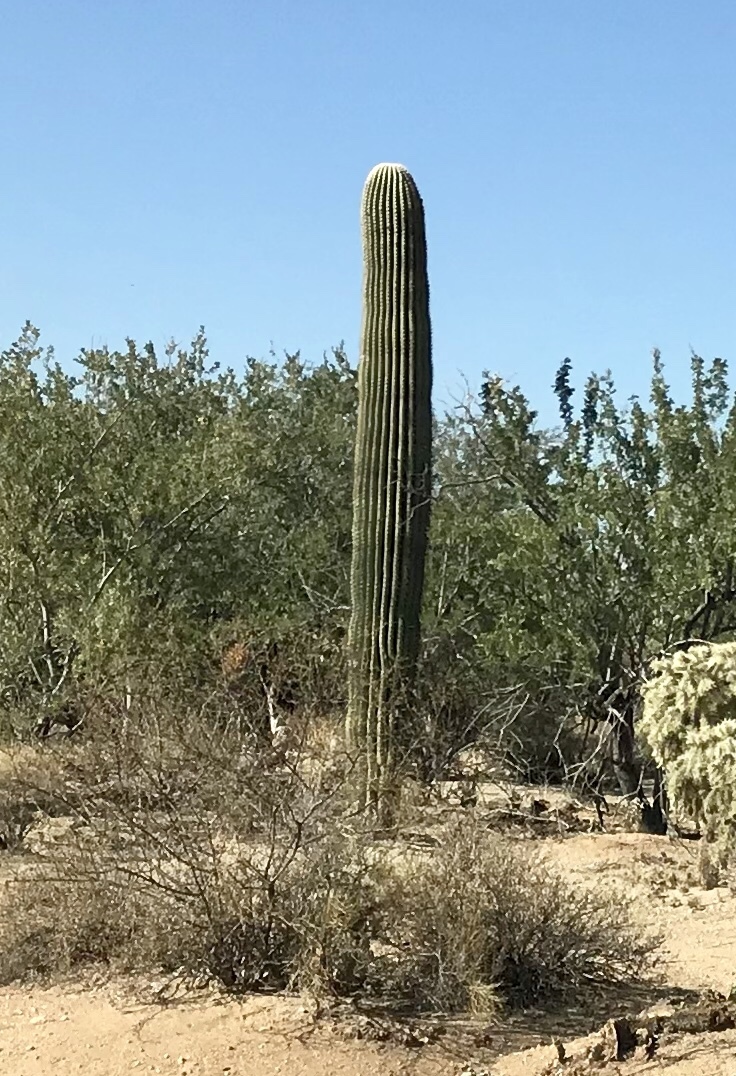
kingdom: Plantae
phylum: Tracheophyta
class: Magnoliopsida
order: Caryophyllales
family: Cactaceae
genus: Carnegiea
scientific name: Carnegiea gigantea
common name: Saguaro
